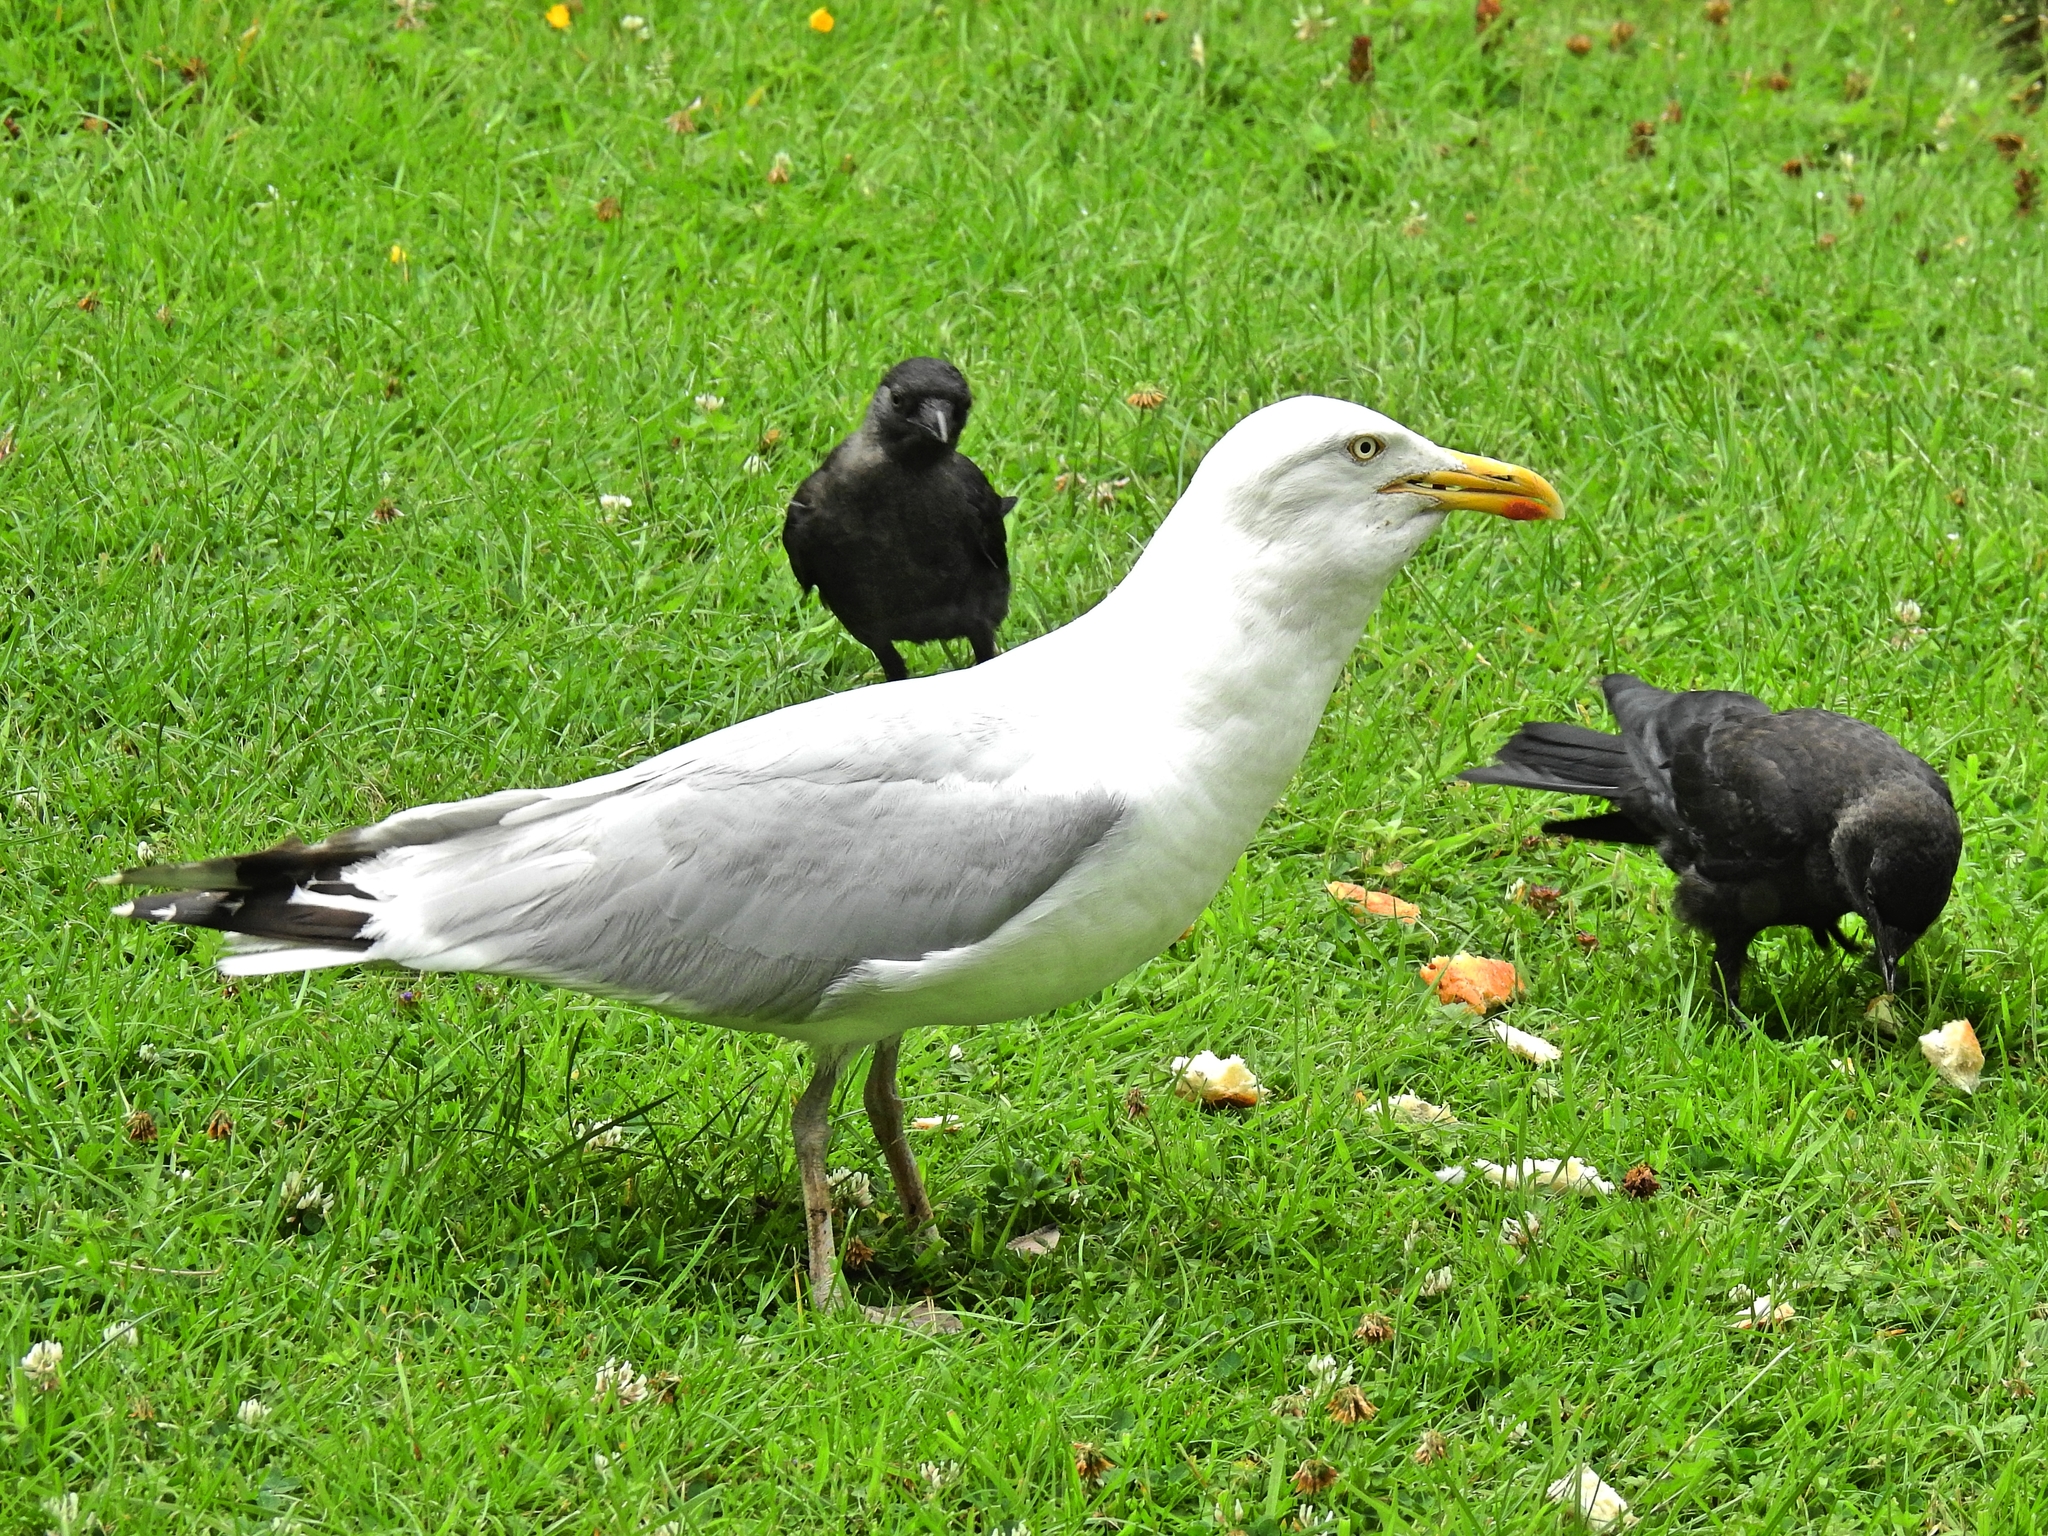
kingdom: Animalia
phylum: Chordata
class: Aves
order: Charadriiformes
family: Laridae
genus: Larus
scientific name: Larus argentatus
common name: Herring gull
